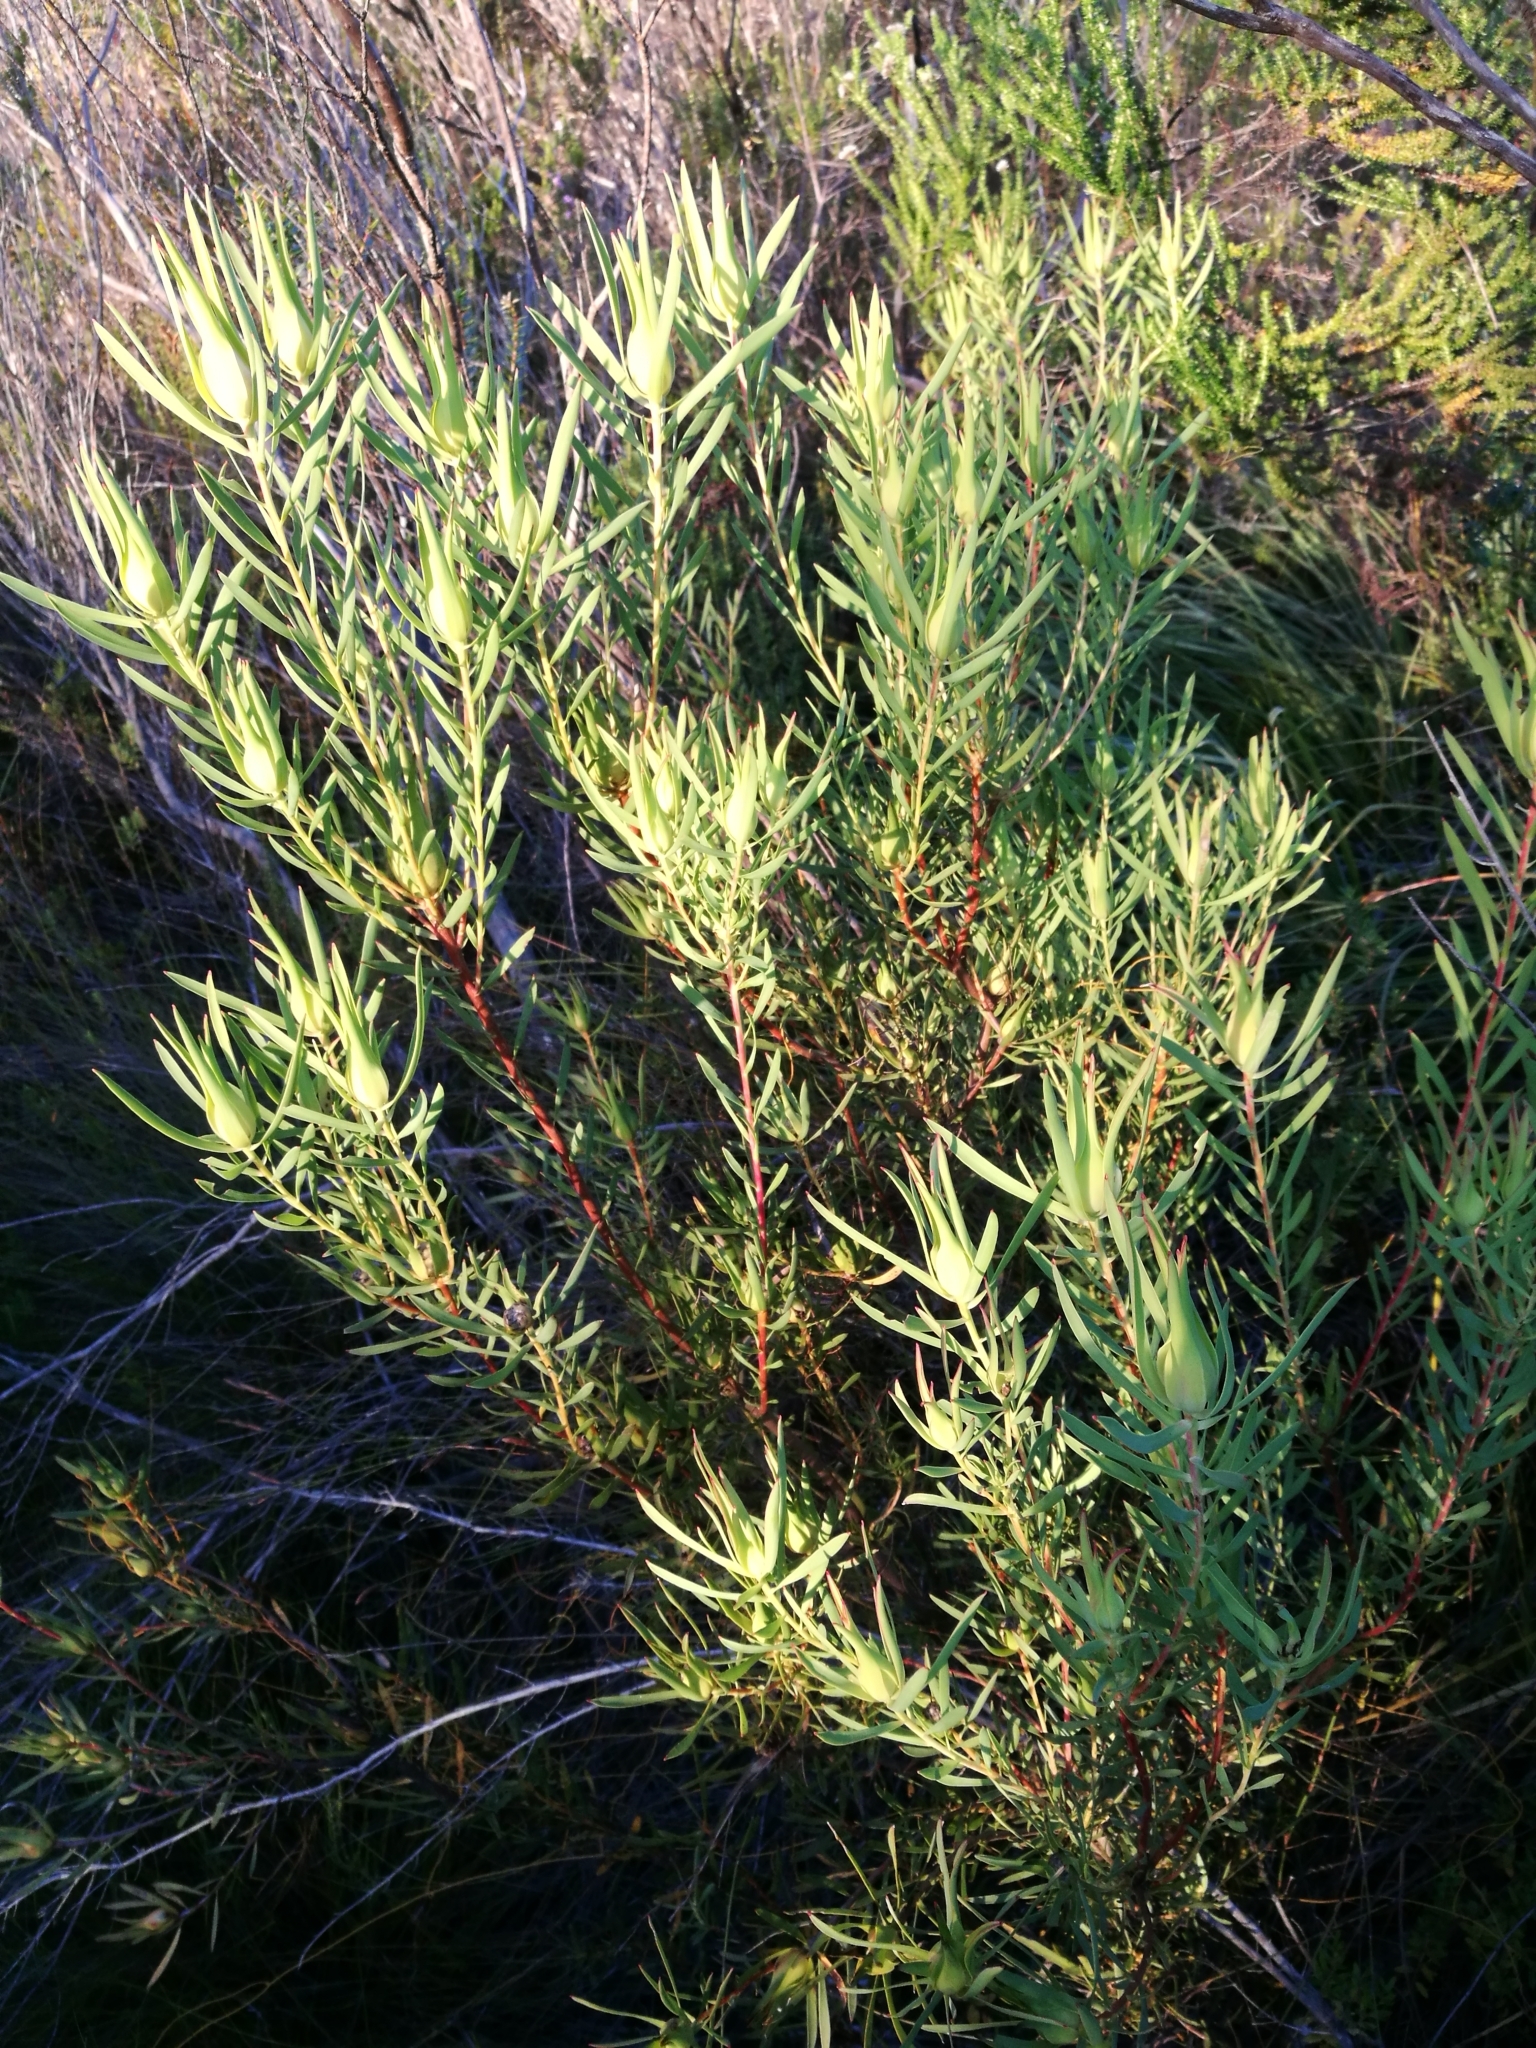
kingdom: Plantae
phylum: Tracheophyta
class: Magnoliopsida
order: Proteales
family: Proteaceae
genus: Leucadendron
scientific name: Leucadendron salignum
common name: Common sunshine conebush
